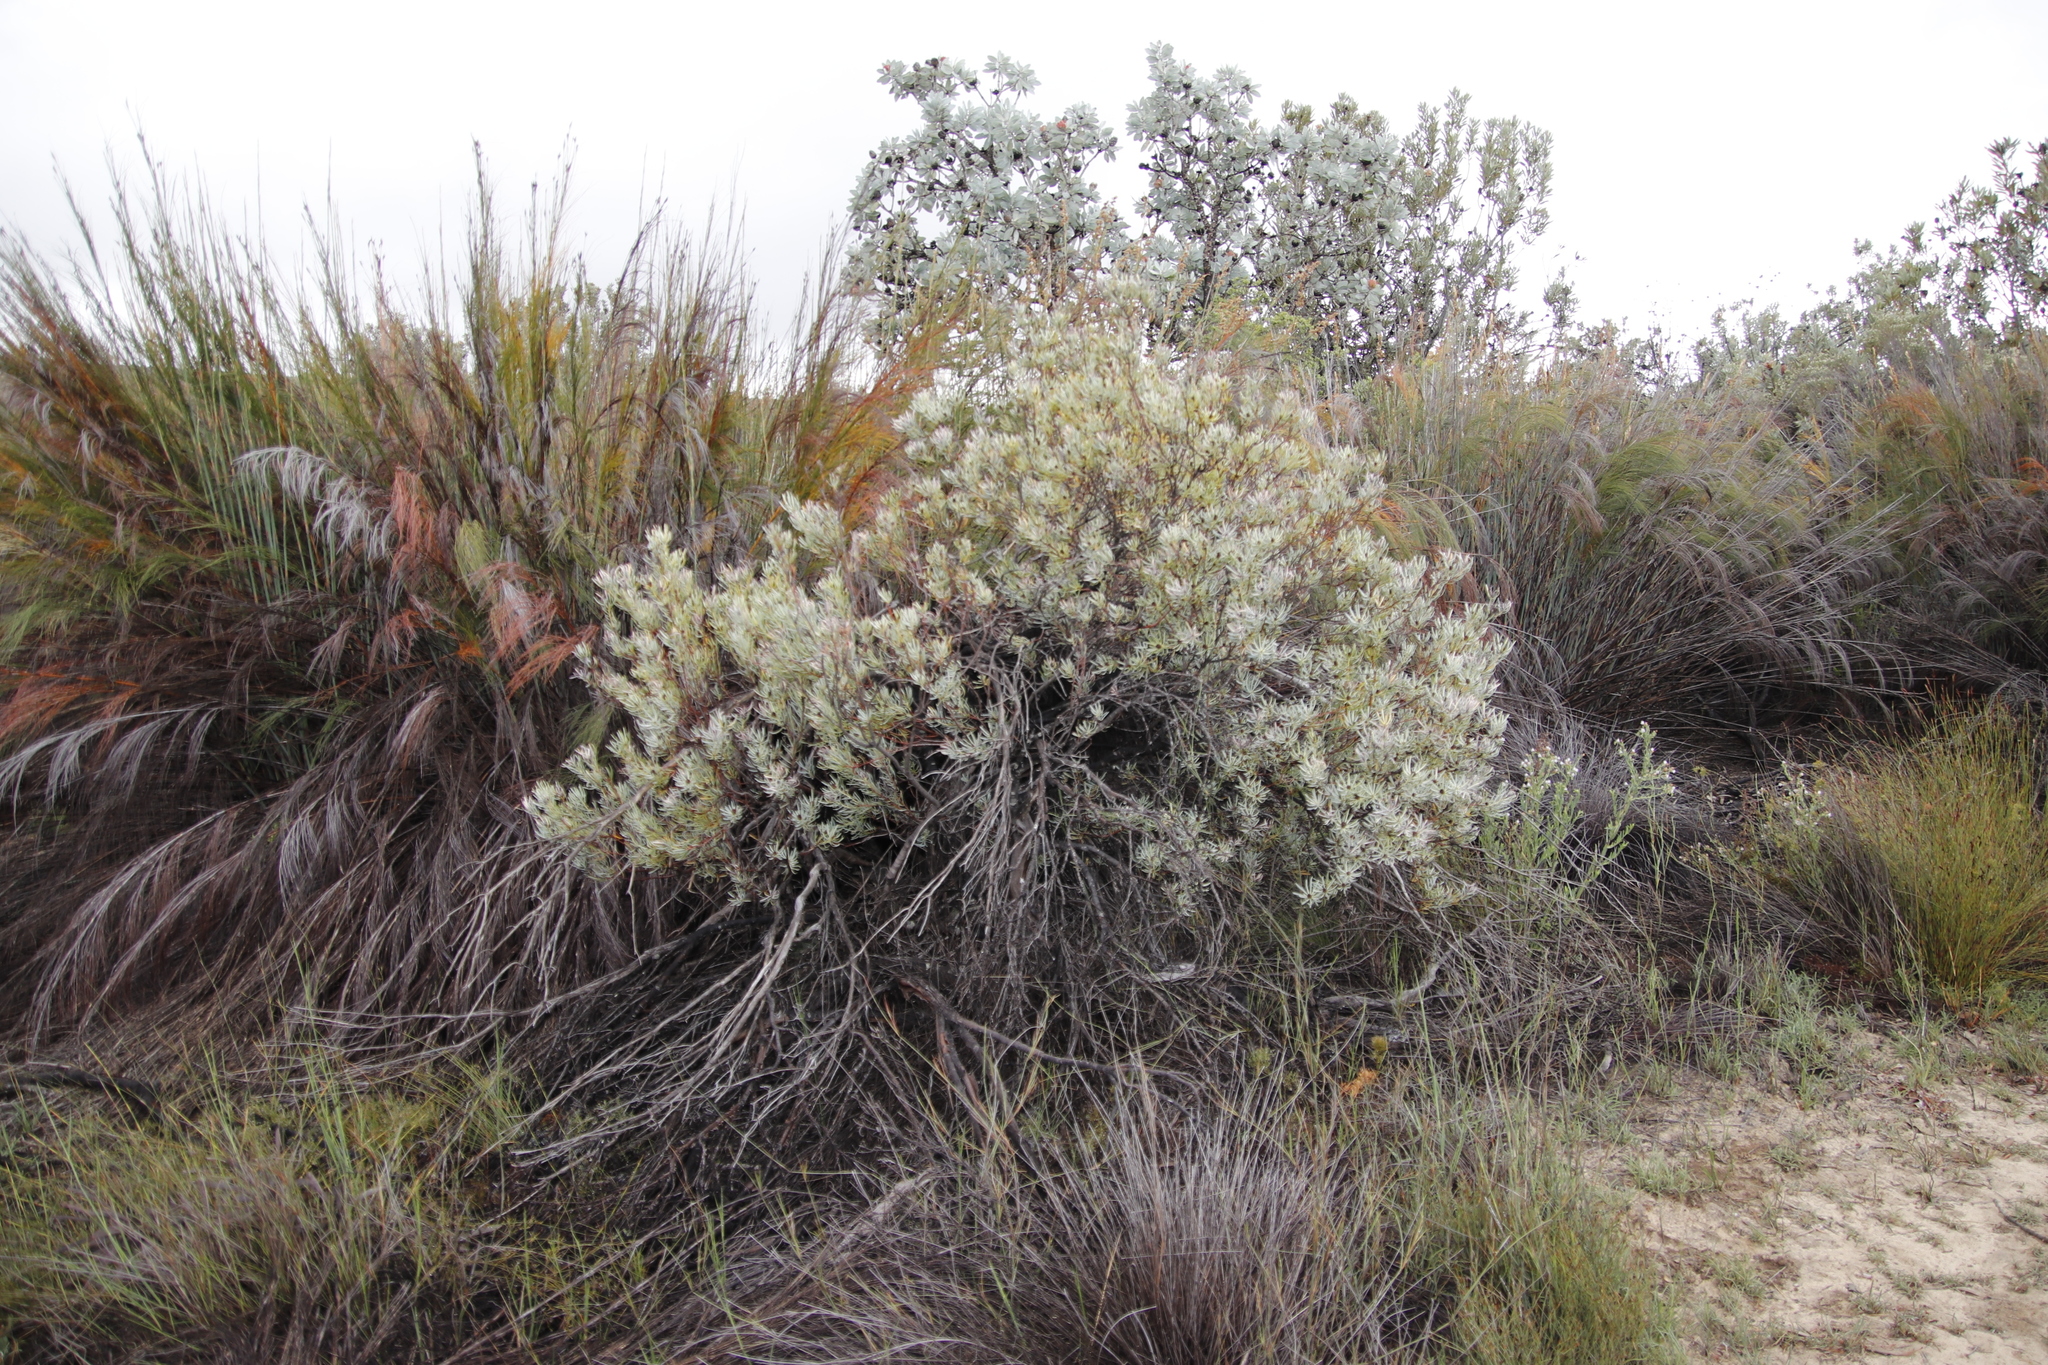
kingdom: Plantae
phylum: Tracheophyta
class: Magnoliopsida
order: Proteales
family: Proteaceae
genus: Leucadendron
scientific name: Leucadendron meyerianum
